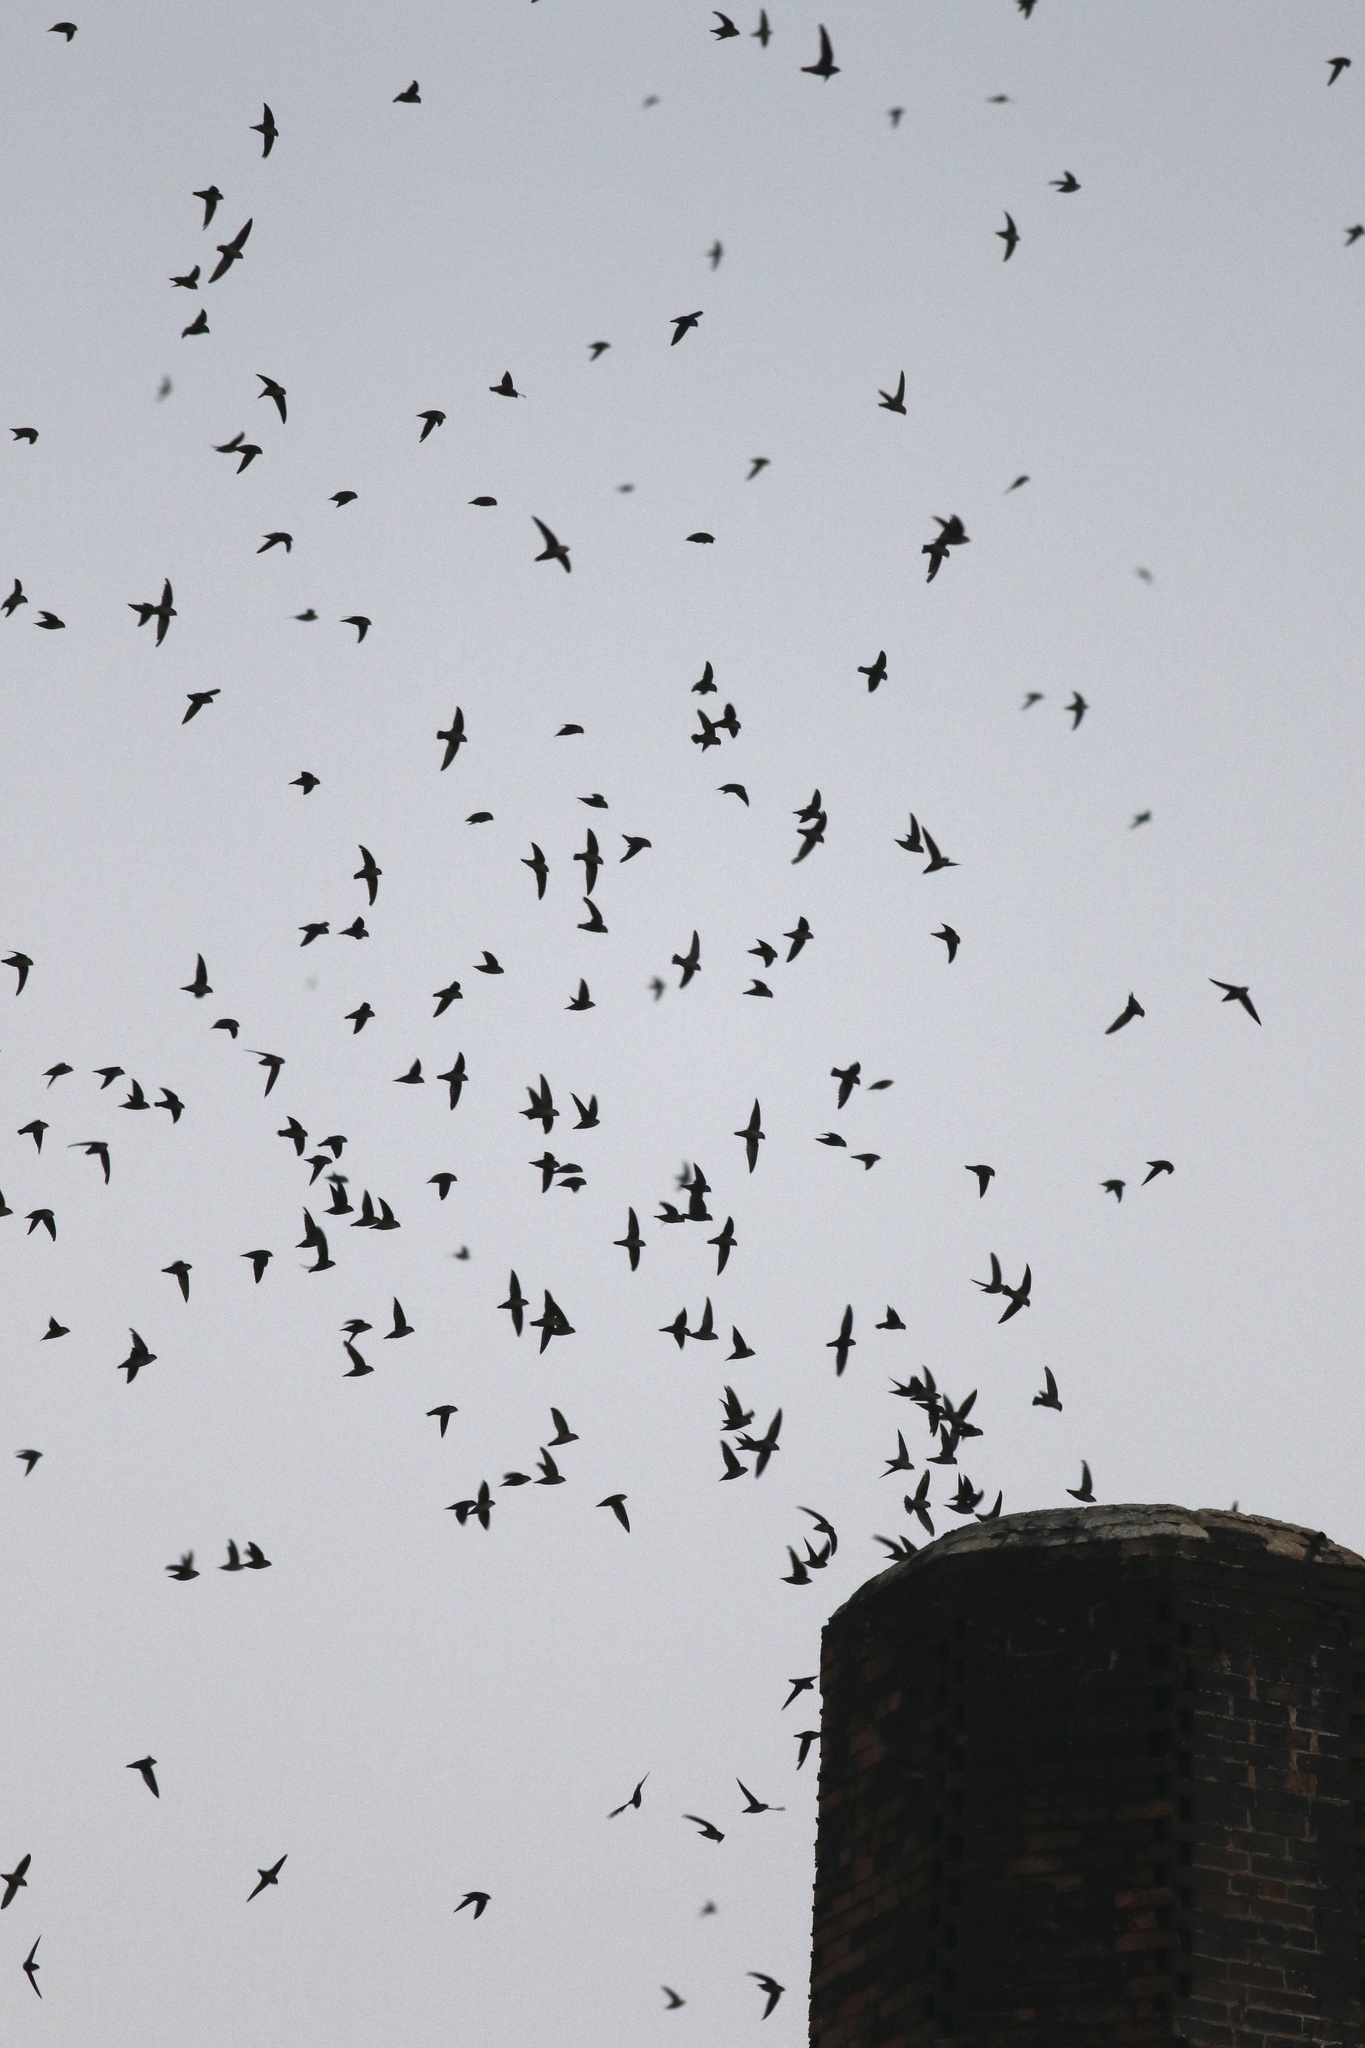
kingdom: Animalia
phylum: Chordata
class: Aves
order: Apodiformes
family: Apodidae
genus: Chaetura
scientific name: Chaetura vauxi
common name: Vaux's swift
